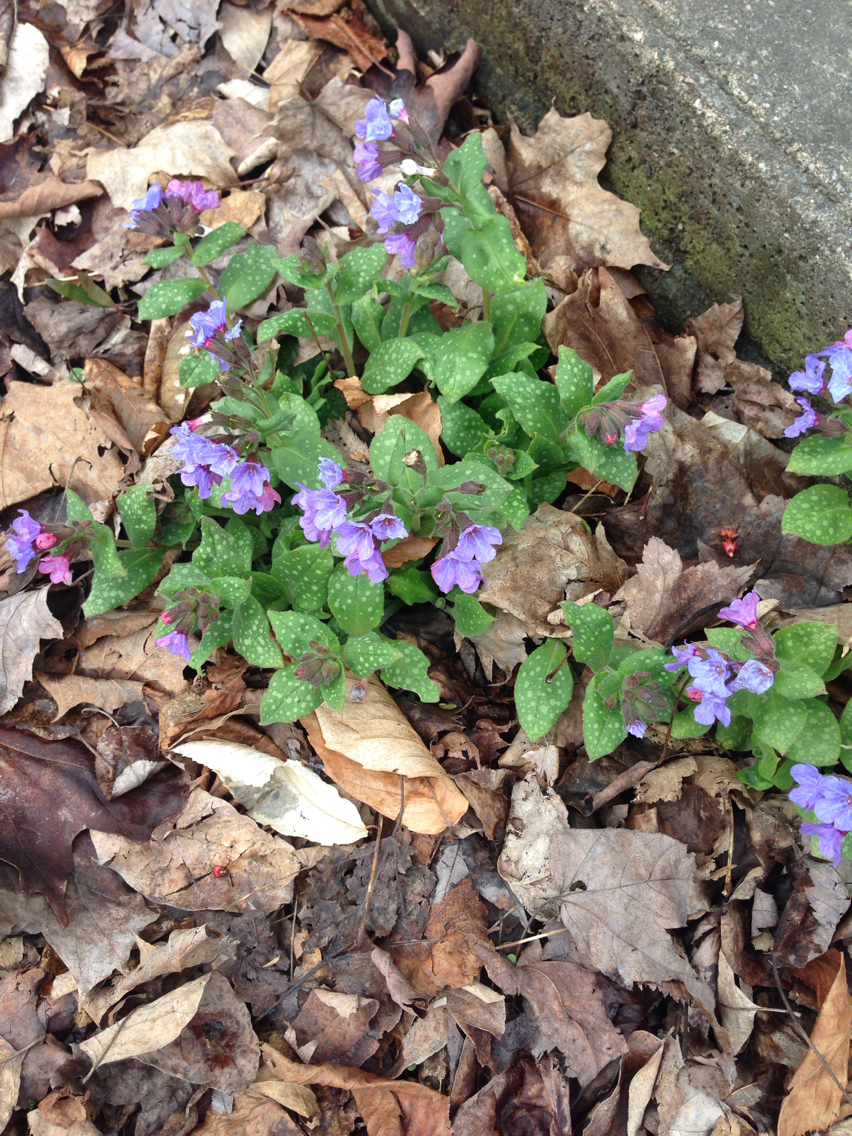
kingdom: Plantae
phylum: Tracheophyta
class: Magnoliopsida
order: Boraginales
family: Boraginaceae
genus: Pulmonaria
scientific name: Pulmonaria officinalis
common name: Lungwort
